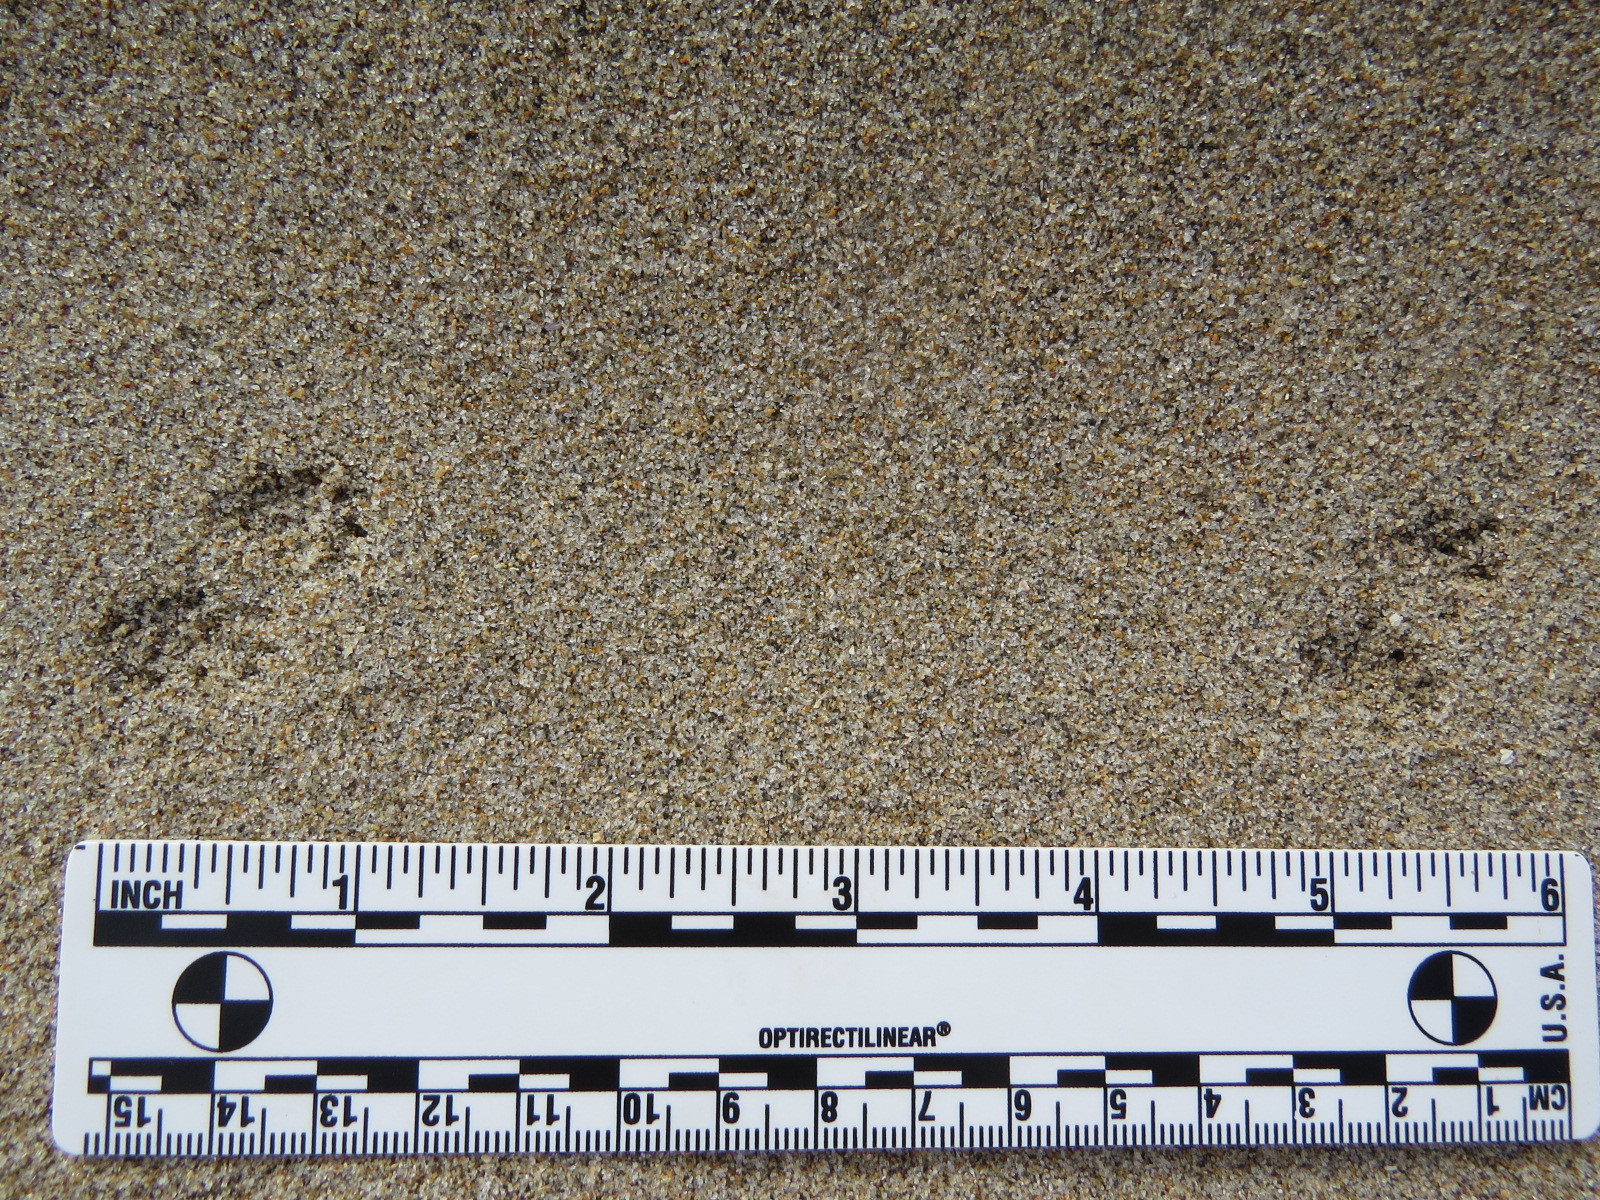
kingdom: Animalia
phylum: Chordata
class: Mammalia
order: Rodentia
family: Geomyidae
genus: Thomomys
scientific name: Thomomys bottae
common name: Botta's pocket gopher
